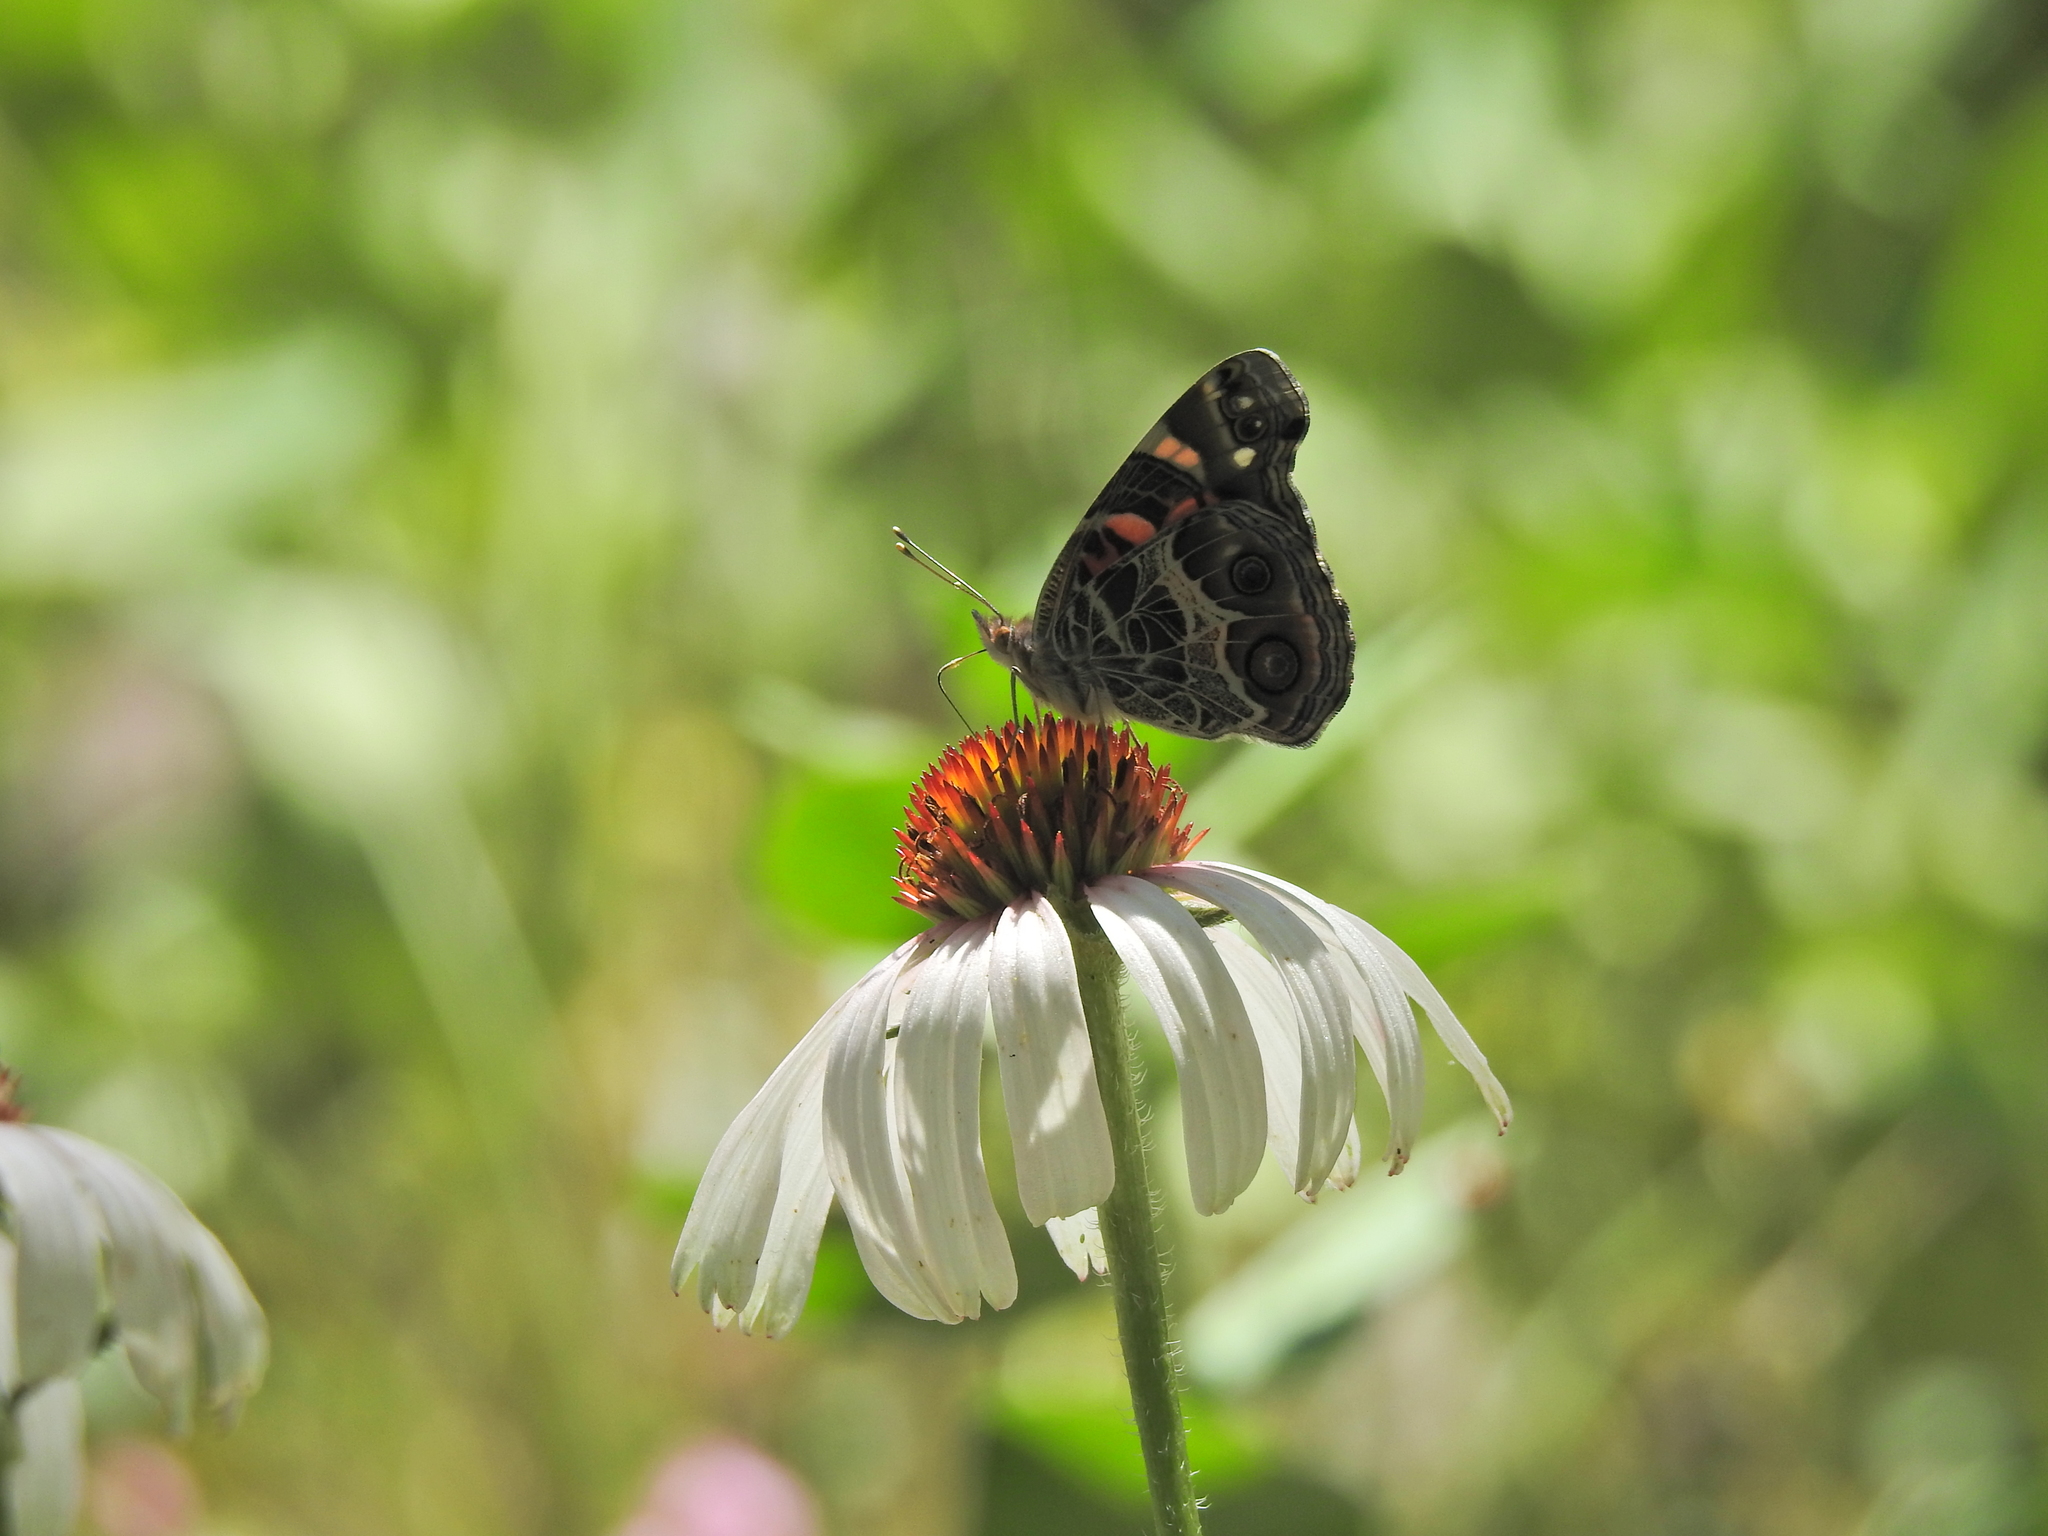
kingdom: Animalia
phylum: Arthropoda
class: Insecta
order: Lepidoptera
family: Nymphalidae
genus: Vanessa
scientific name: Vanessa virginiensis
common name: American lady
